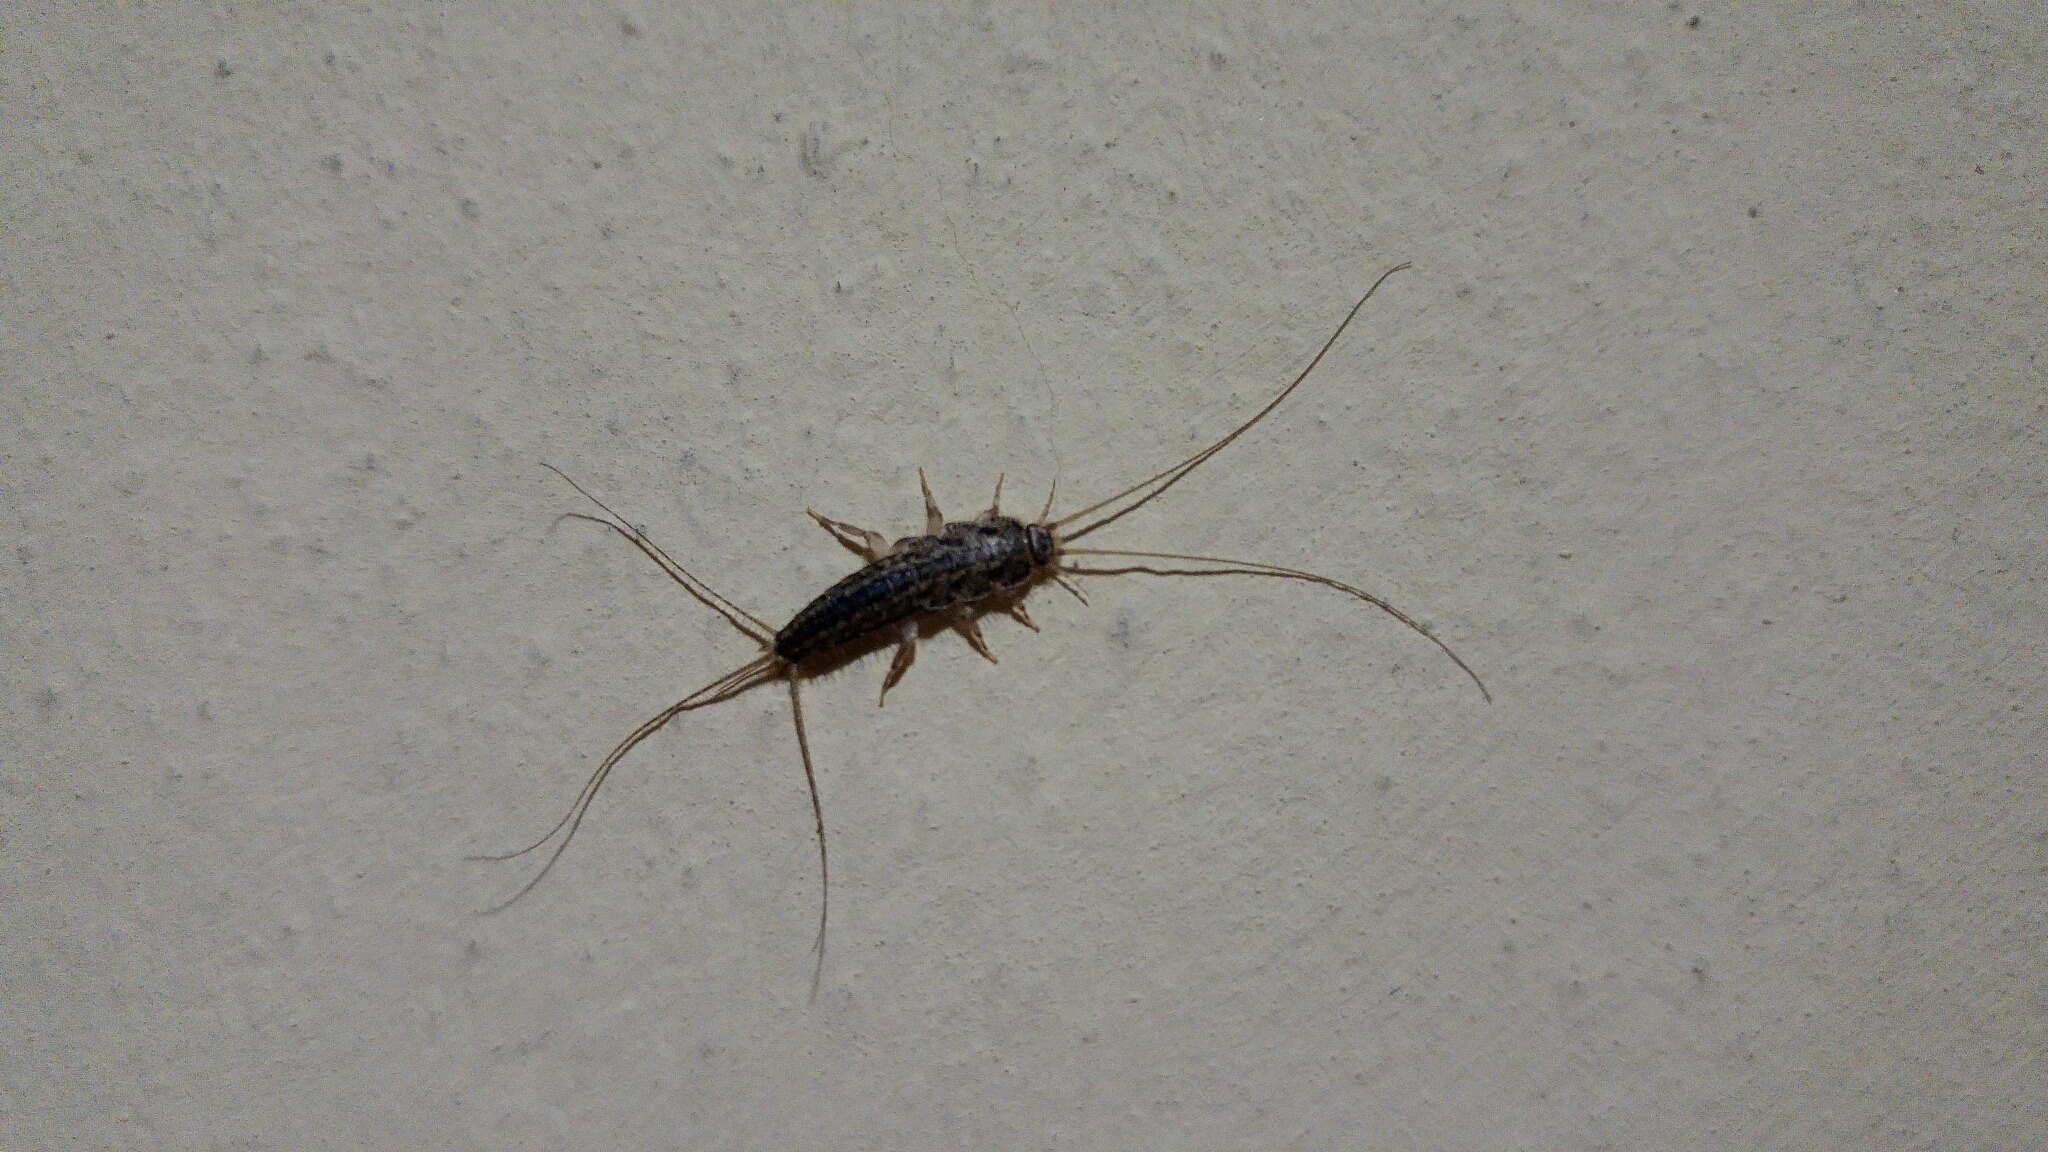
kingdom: Animalia
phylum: Arthropoda
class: Insecta
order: Zygentoma
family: Lepismatidae
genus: Ctenolepisma
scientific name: Ctenolepisma lineata
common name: Four-lined silverfish
